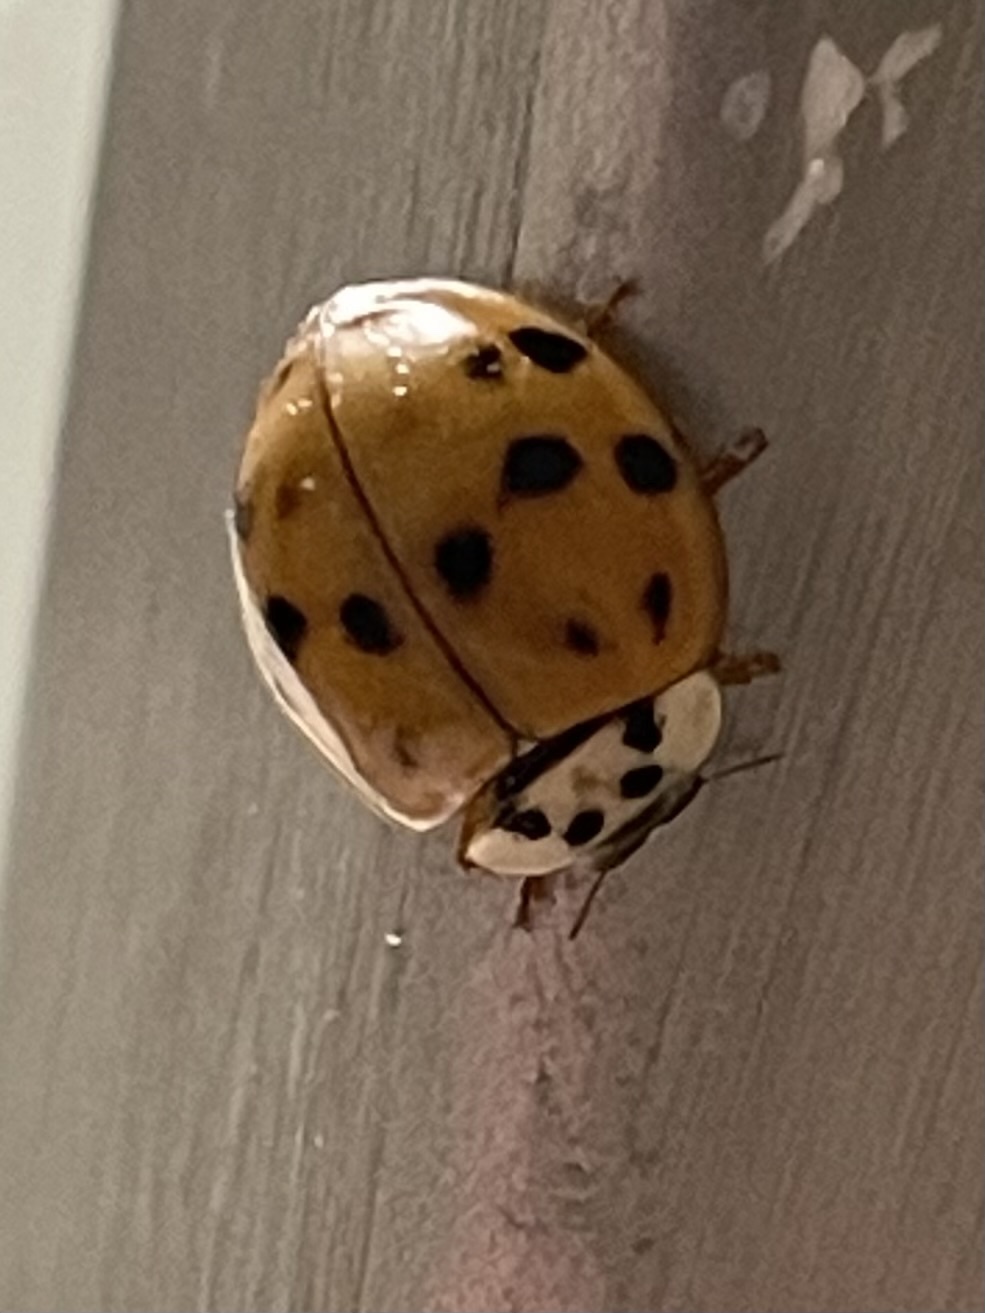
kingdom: Animalia
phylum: Arthropoda
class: Insecta
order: Coleoptera
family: Coccinellidae
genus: Harmonia
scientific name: Harmonia axyridis
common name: Harlequin ladybird
